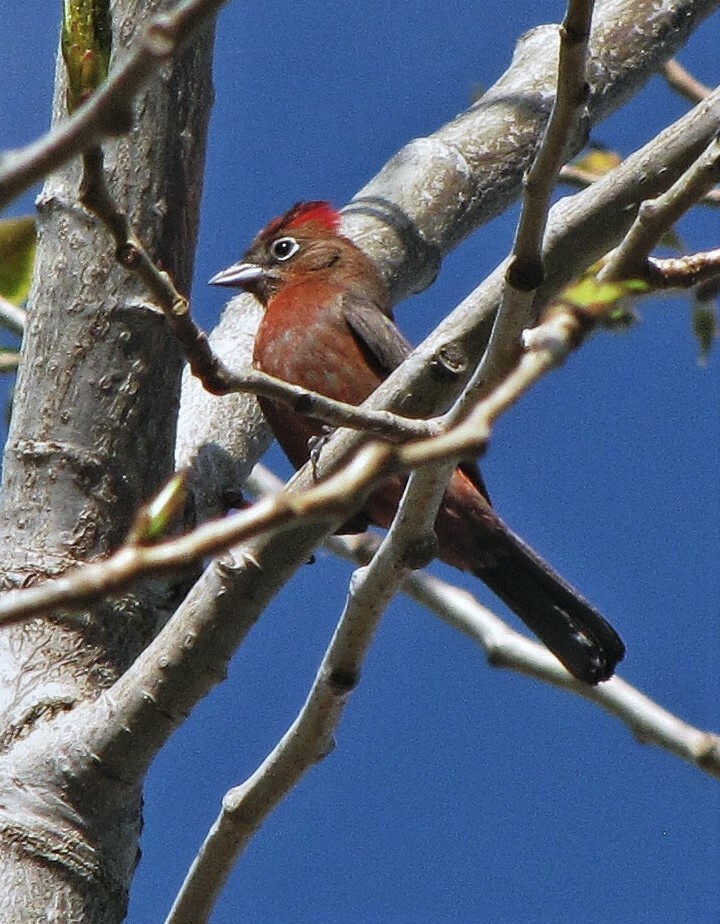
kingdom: Animalia
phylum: Chordata
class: Aves
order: Passeriformes
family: Thraupidae
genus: Coryphospingus
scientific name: Coryphospingus cucullatus
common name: Red pileated finch
